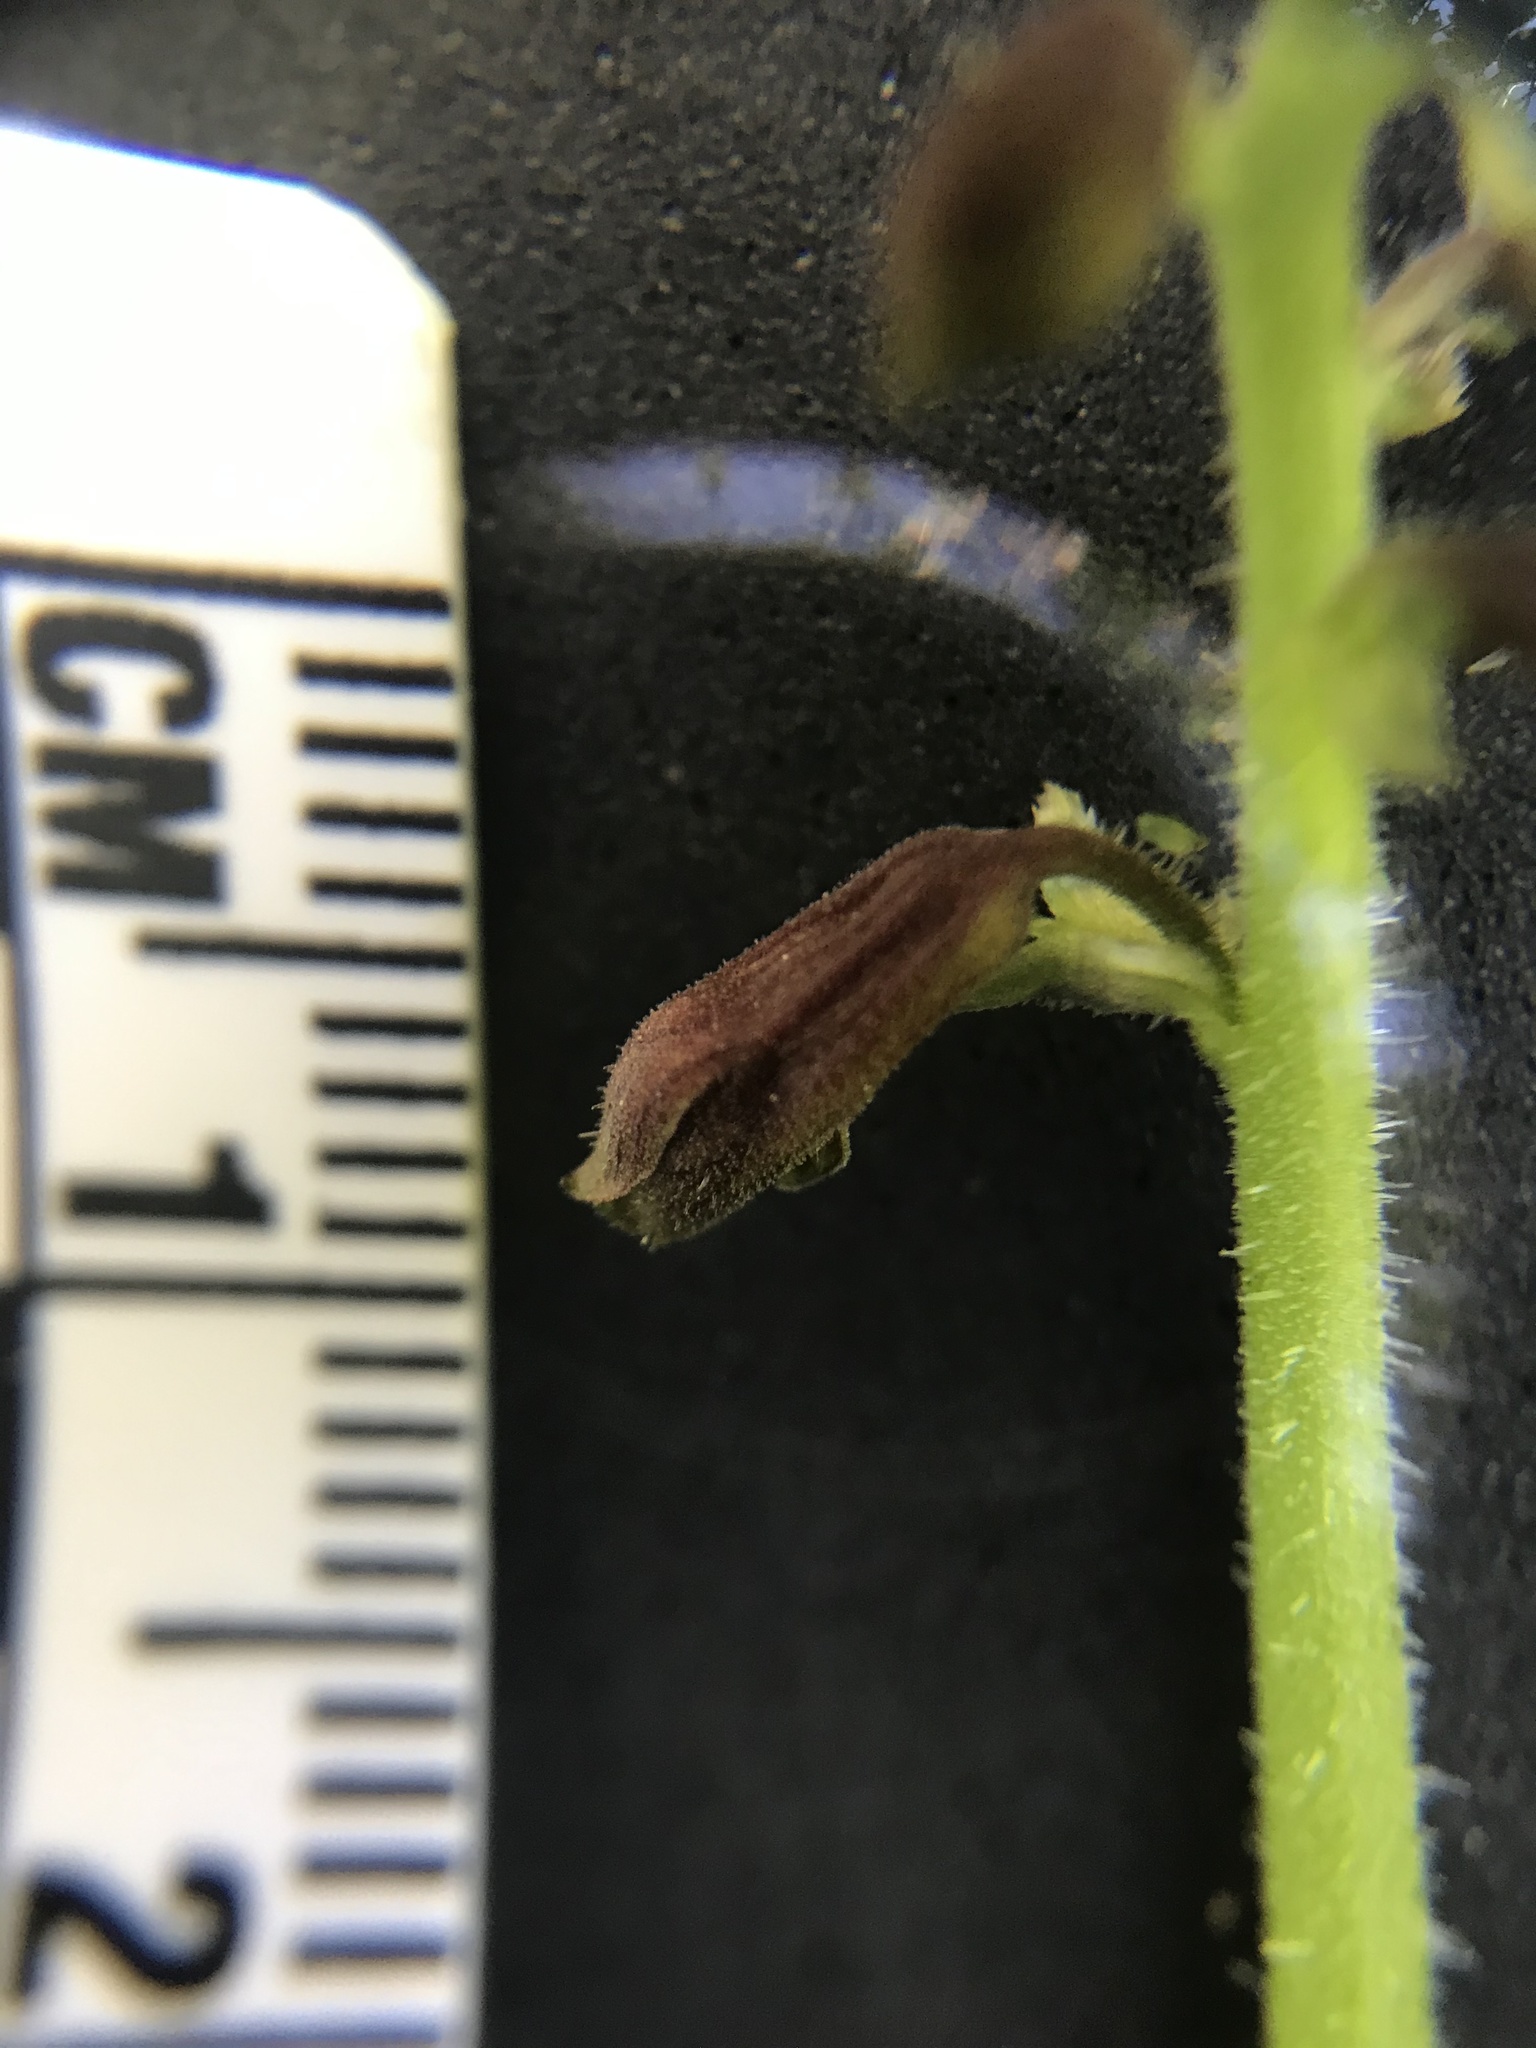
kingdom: Plantae
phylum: Tracheophyta
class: Magnoliopsida
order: Saxifragales
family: Saxifragaceae
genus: Tolmiea
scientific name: Tolmiea diplomenziesii
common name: Youth on age
